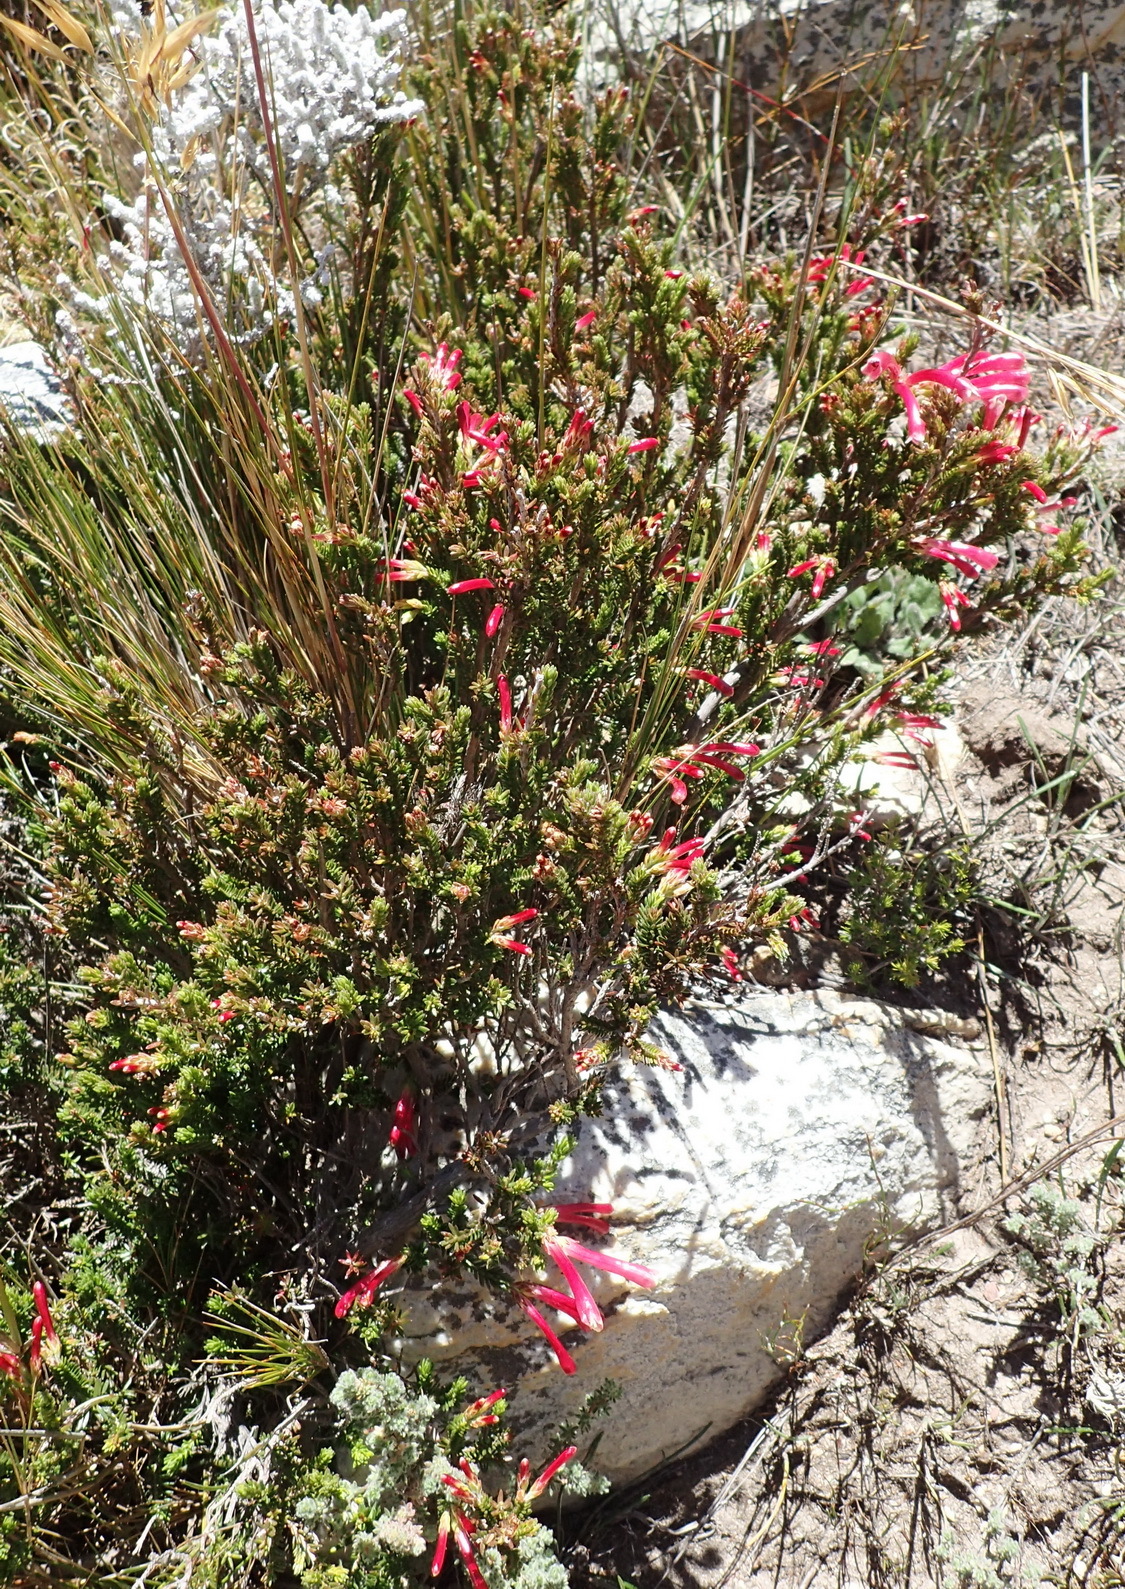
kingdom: Plantae
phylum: Tracheophyta
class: Magnoliopsida
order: Ericales
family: Ericaceae
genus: Erica
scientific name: Erica discolor
